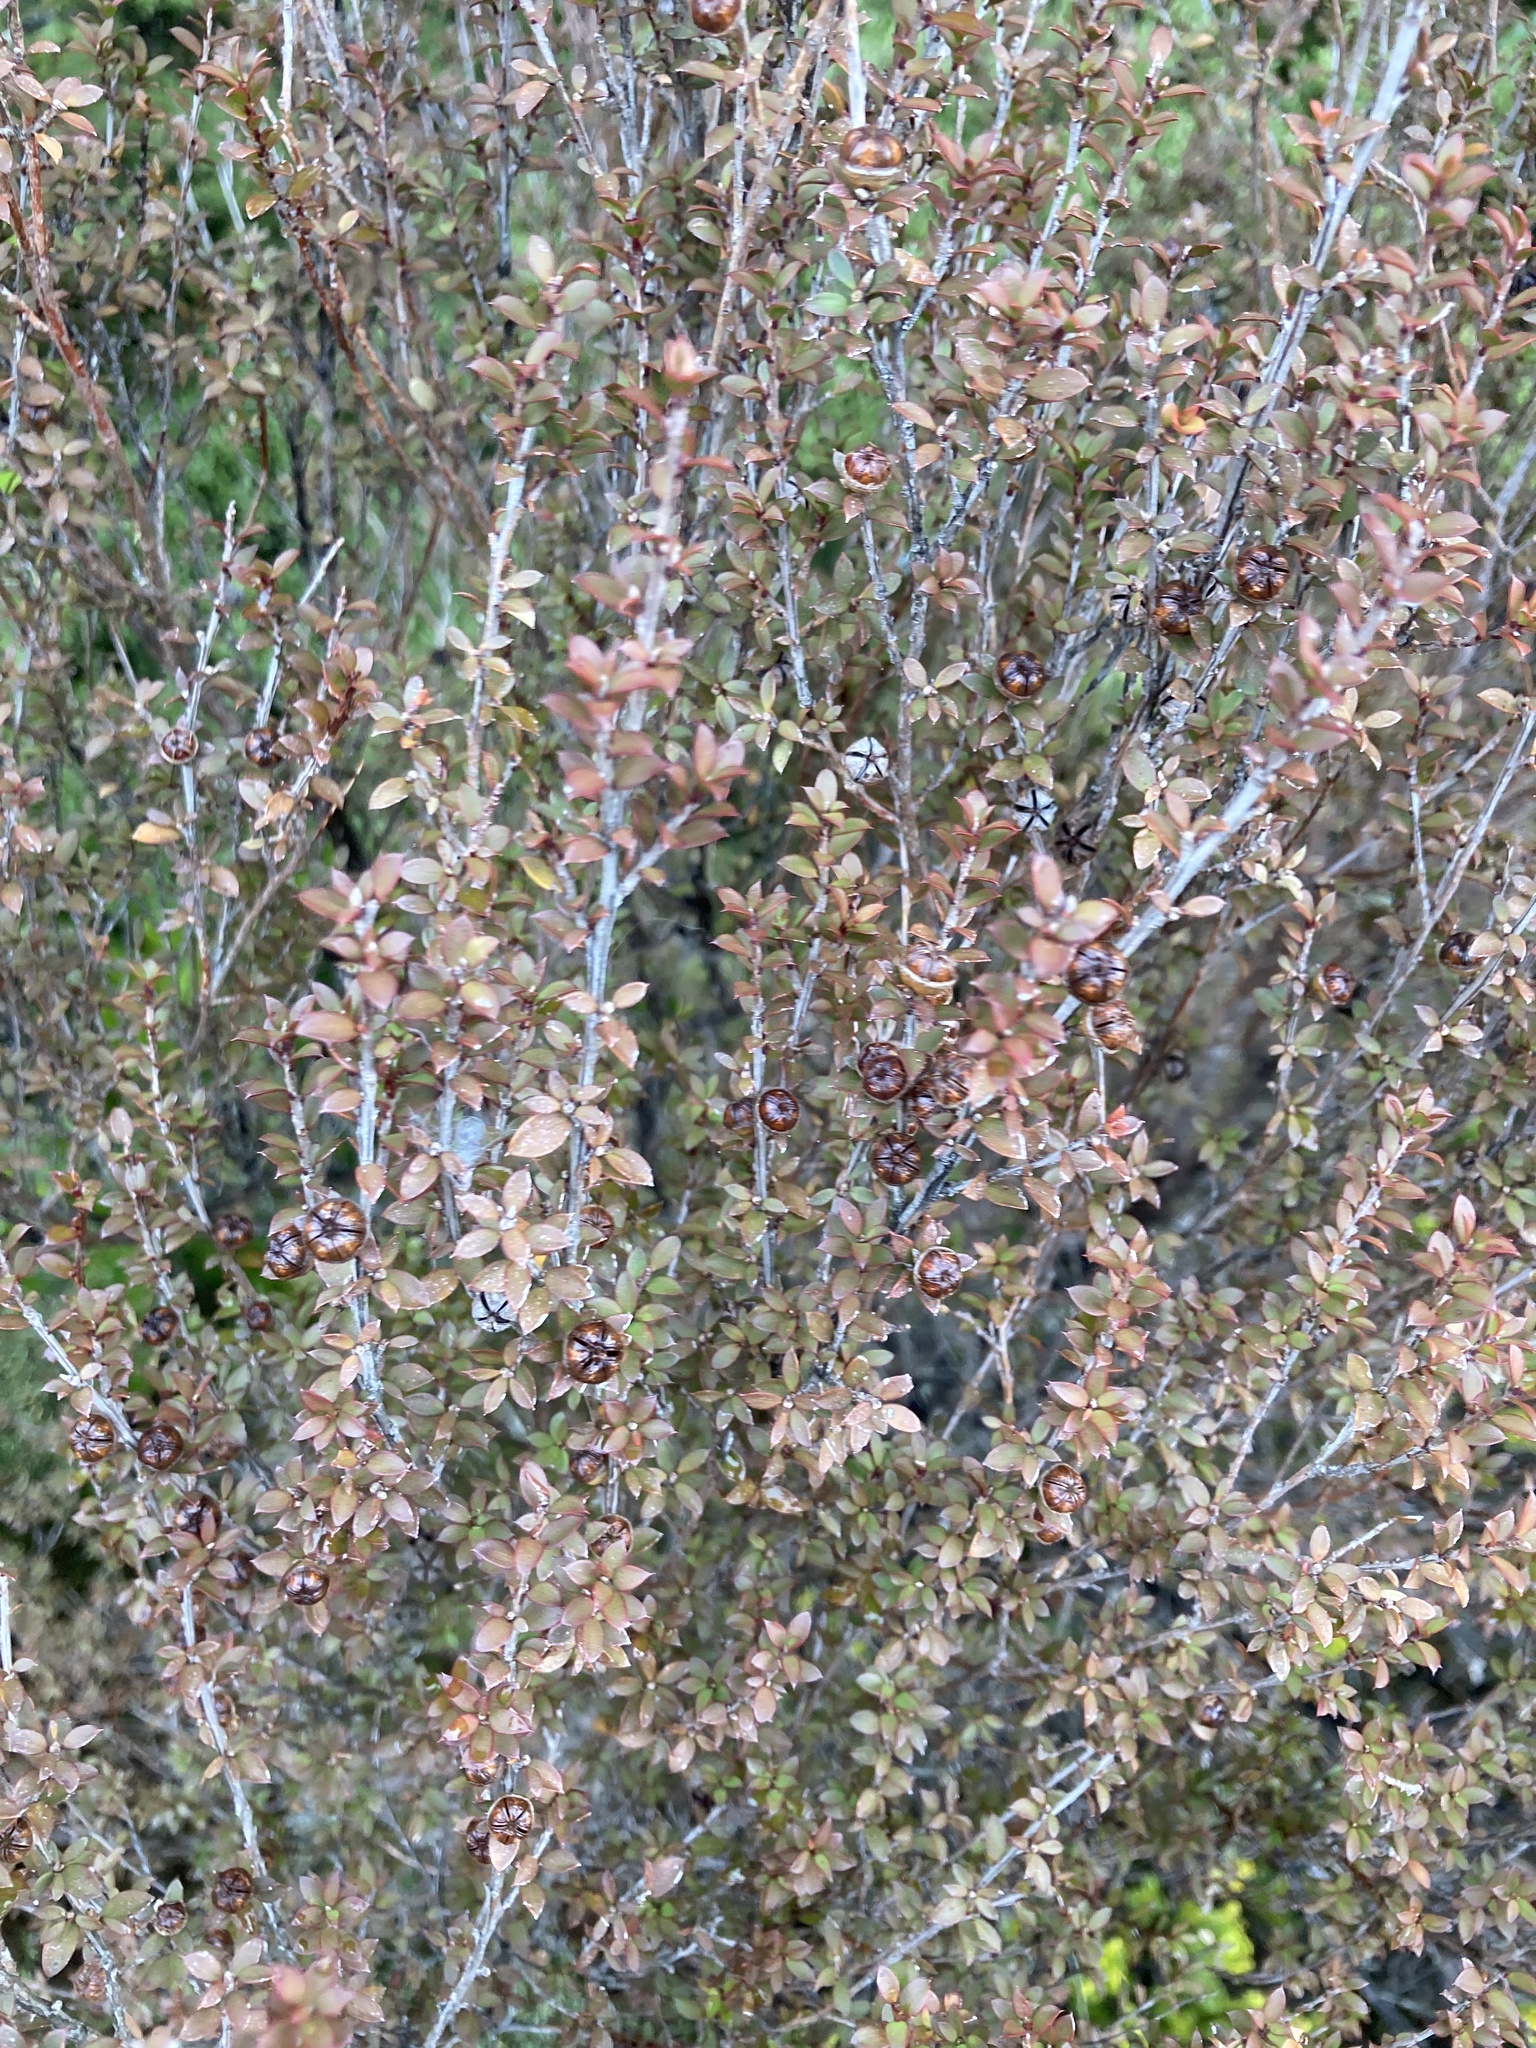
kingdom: Plantae
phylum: Tracheophyta
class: Magnoliopsida
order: Myrtales
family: Myrtaceae
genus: Leptospermum
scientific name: Leptospermum scoparium
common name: Broom tea-tree
